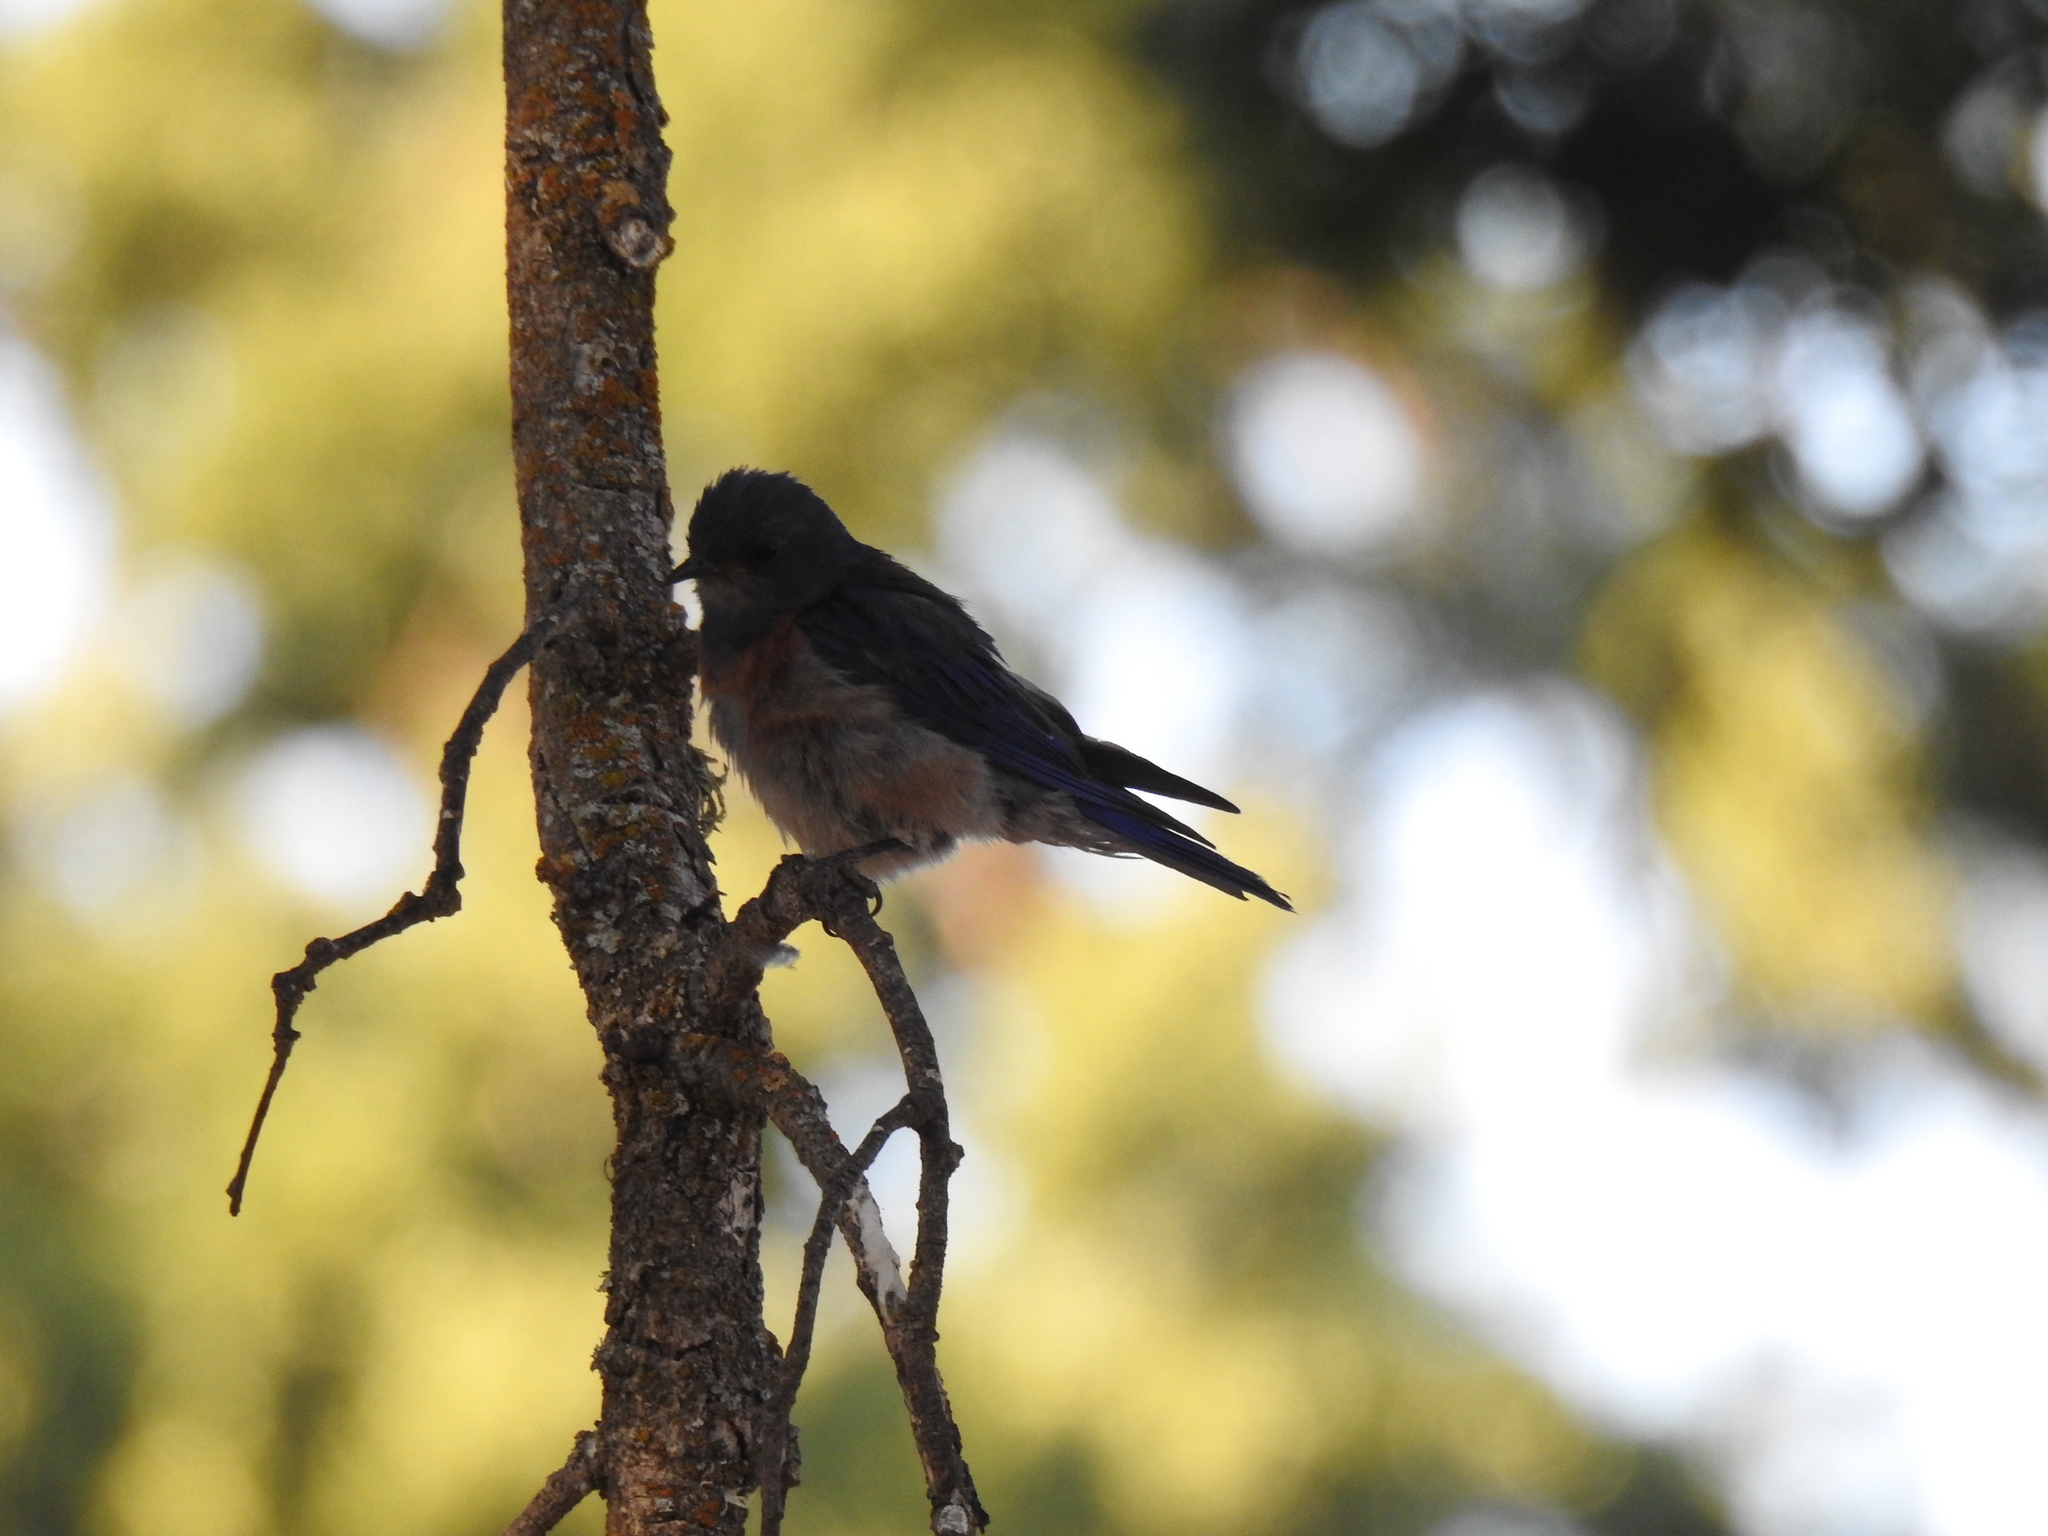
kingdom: Animalia
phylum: Chordata
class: Aves
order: Passeriformes
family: Turdidae
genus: Sialia
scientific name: Sialia mexicana
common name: Western bluebird
